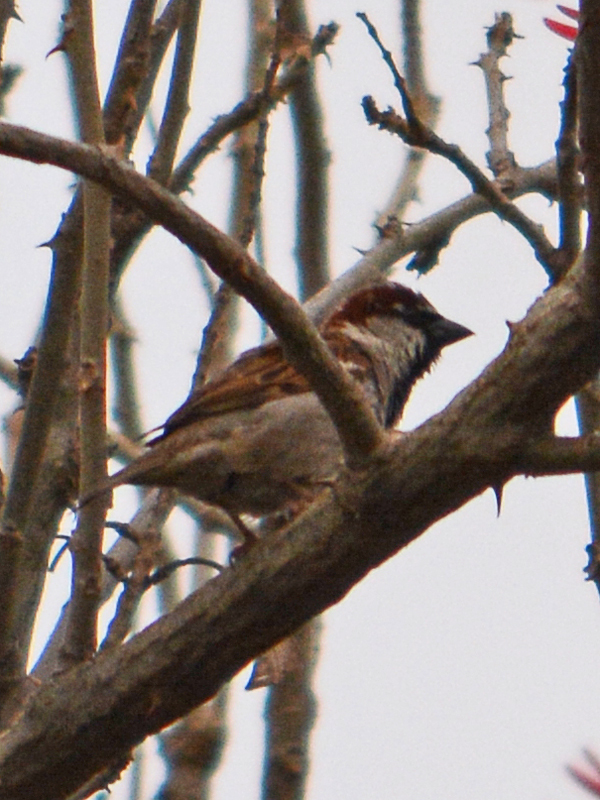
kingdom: Animalia
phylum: Chordata
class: Aves
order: Passeriformes
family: Passeridae
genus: Passer
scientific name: Passer domesticus
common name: House sparrow
